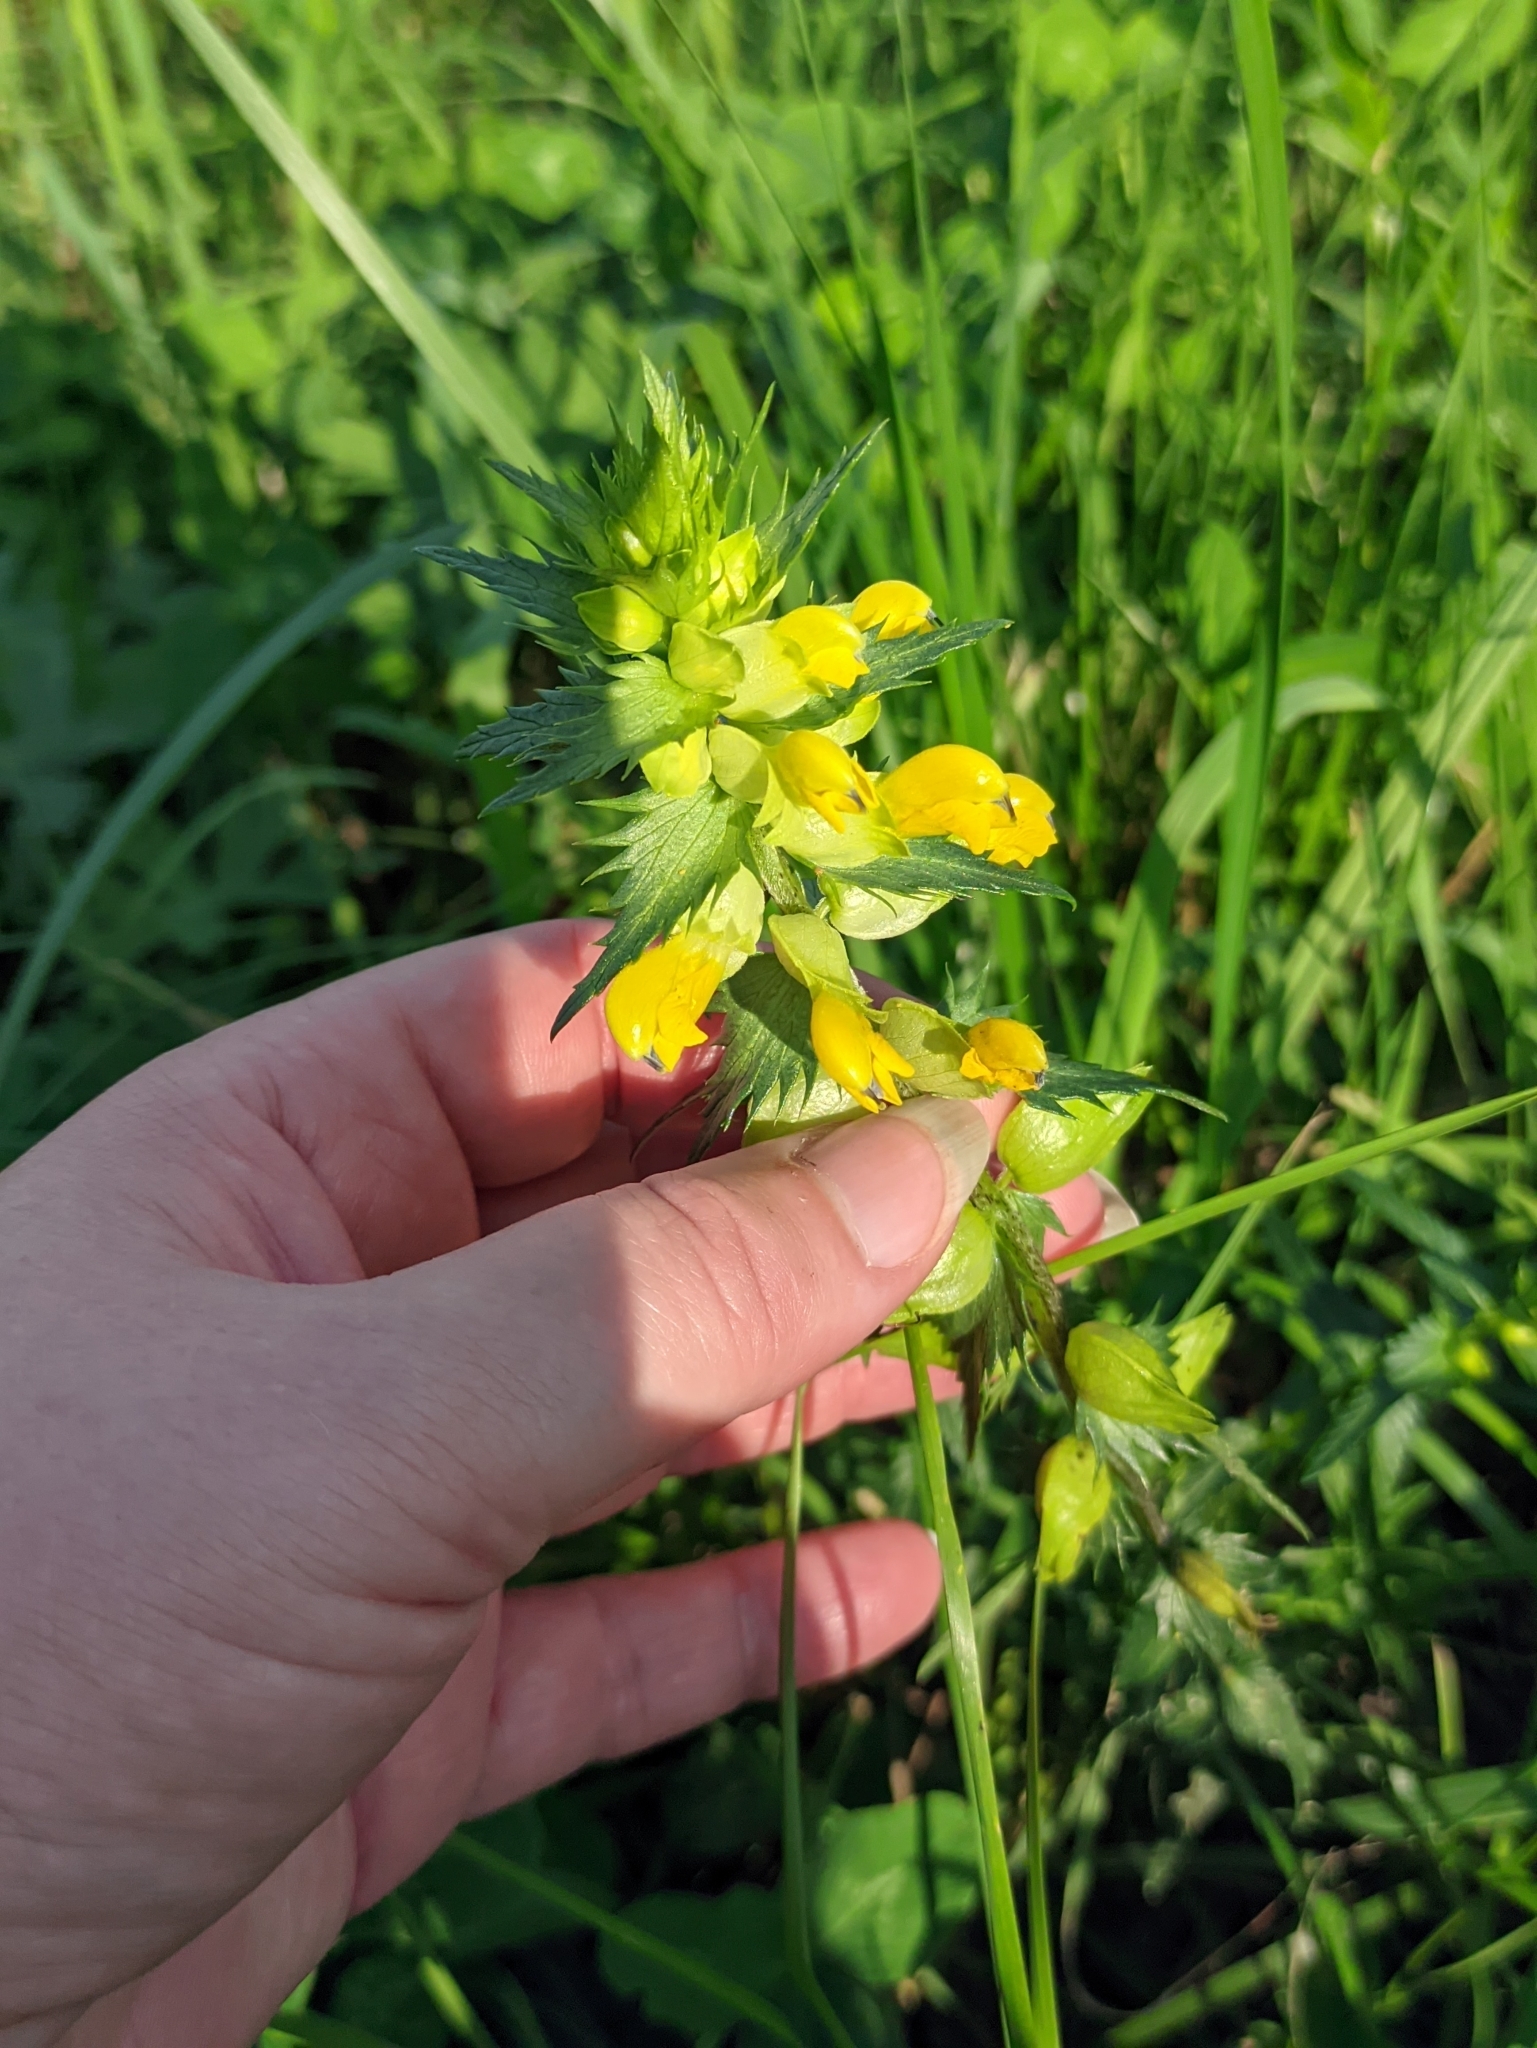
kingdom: Plantae
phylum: Tracheophyta
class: Magnoliopsida
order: Lamiales
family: Orobanchaceae
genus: Rhinanthus
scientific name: Rhinanthus serotinus
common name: Late-flowering yellow rattle
